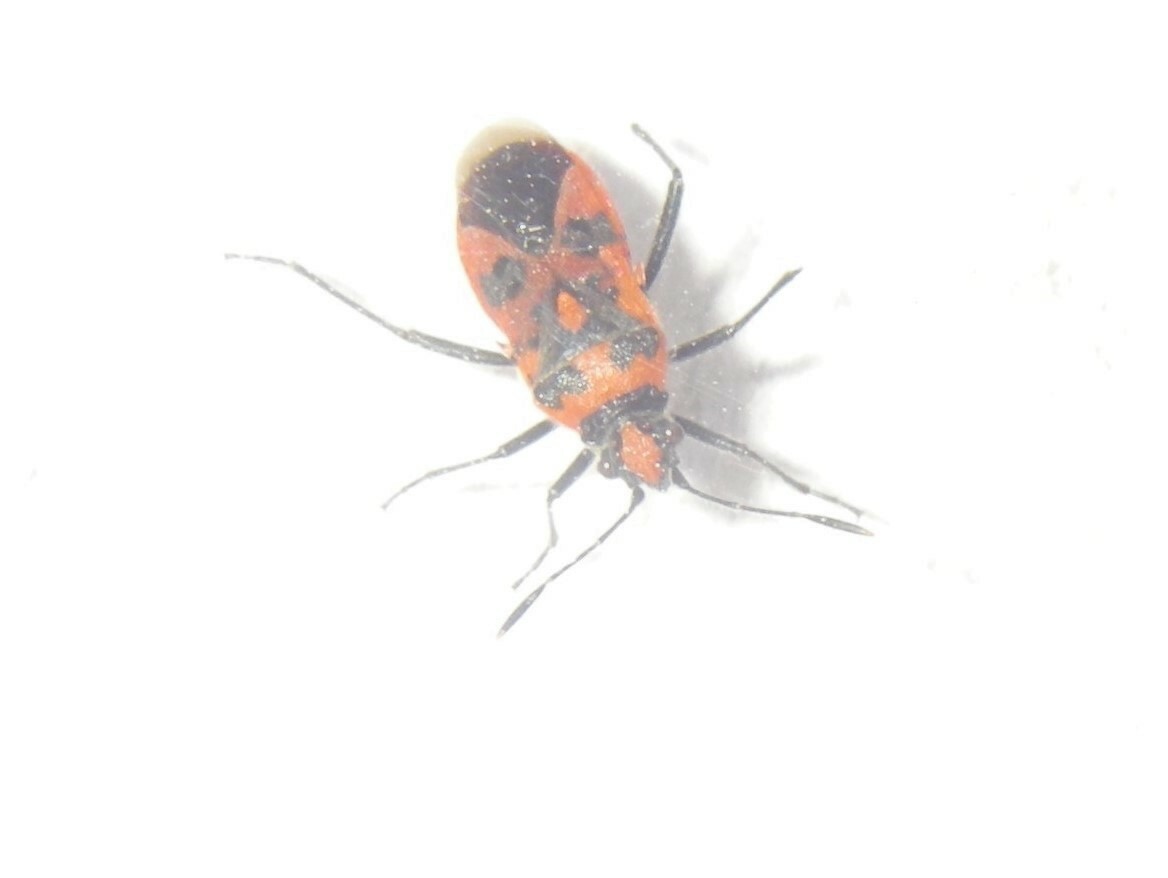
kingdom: Animalia
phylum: Arthropoda
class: Insecta
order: Hemiptera
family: Rhopalidae
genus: Corizus
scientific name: Corizus hyoscyami
